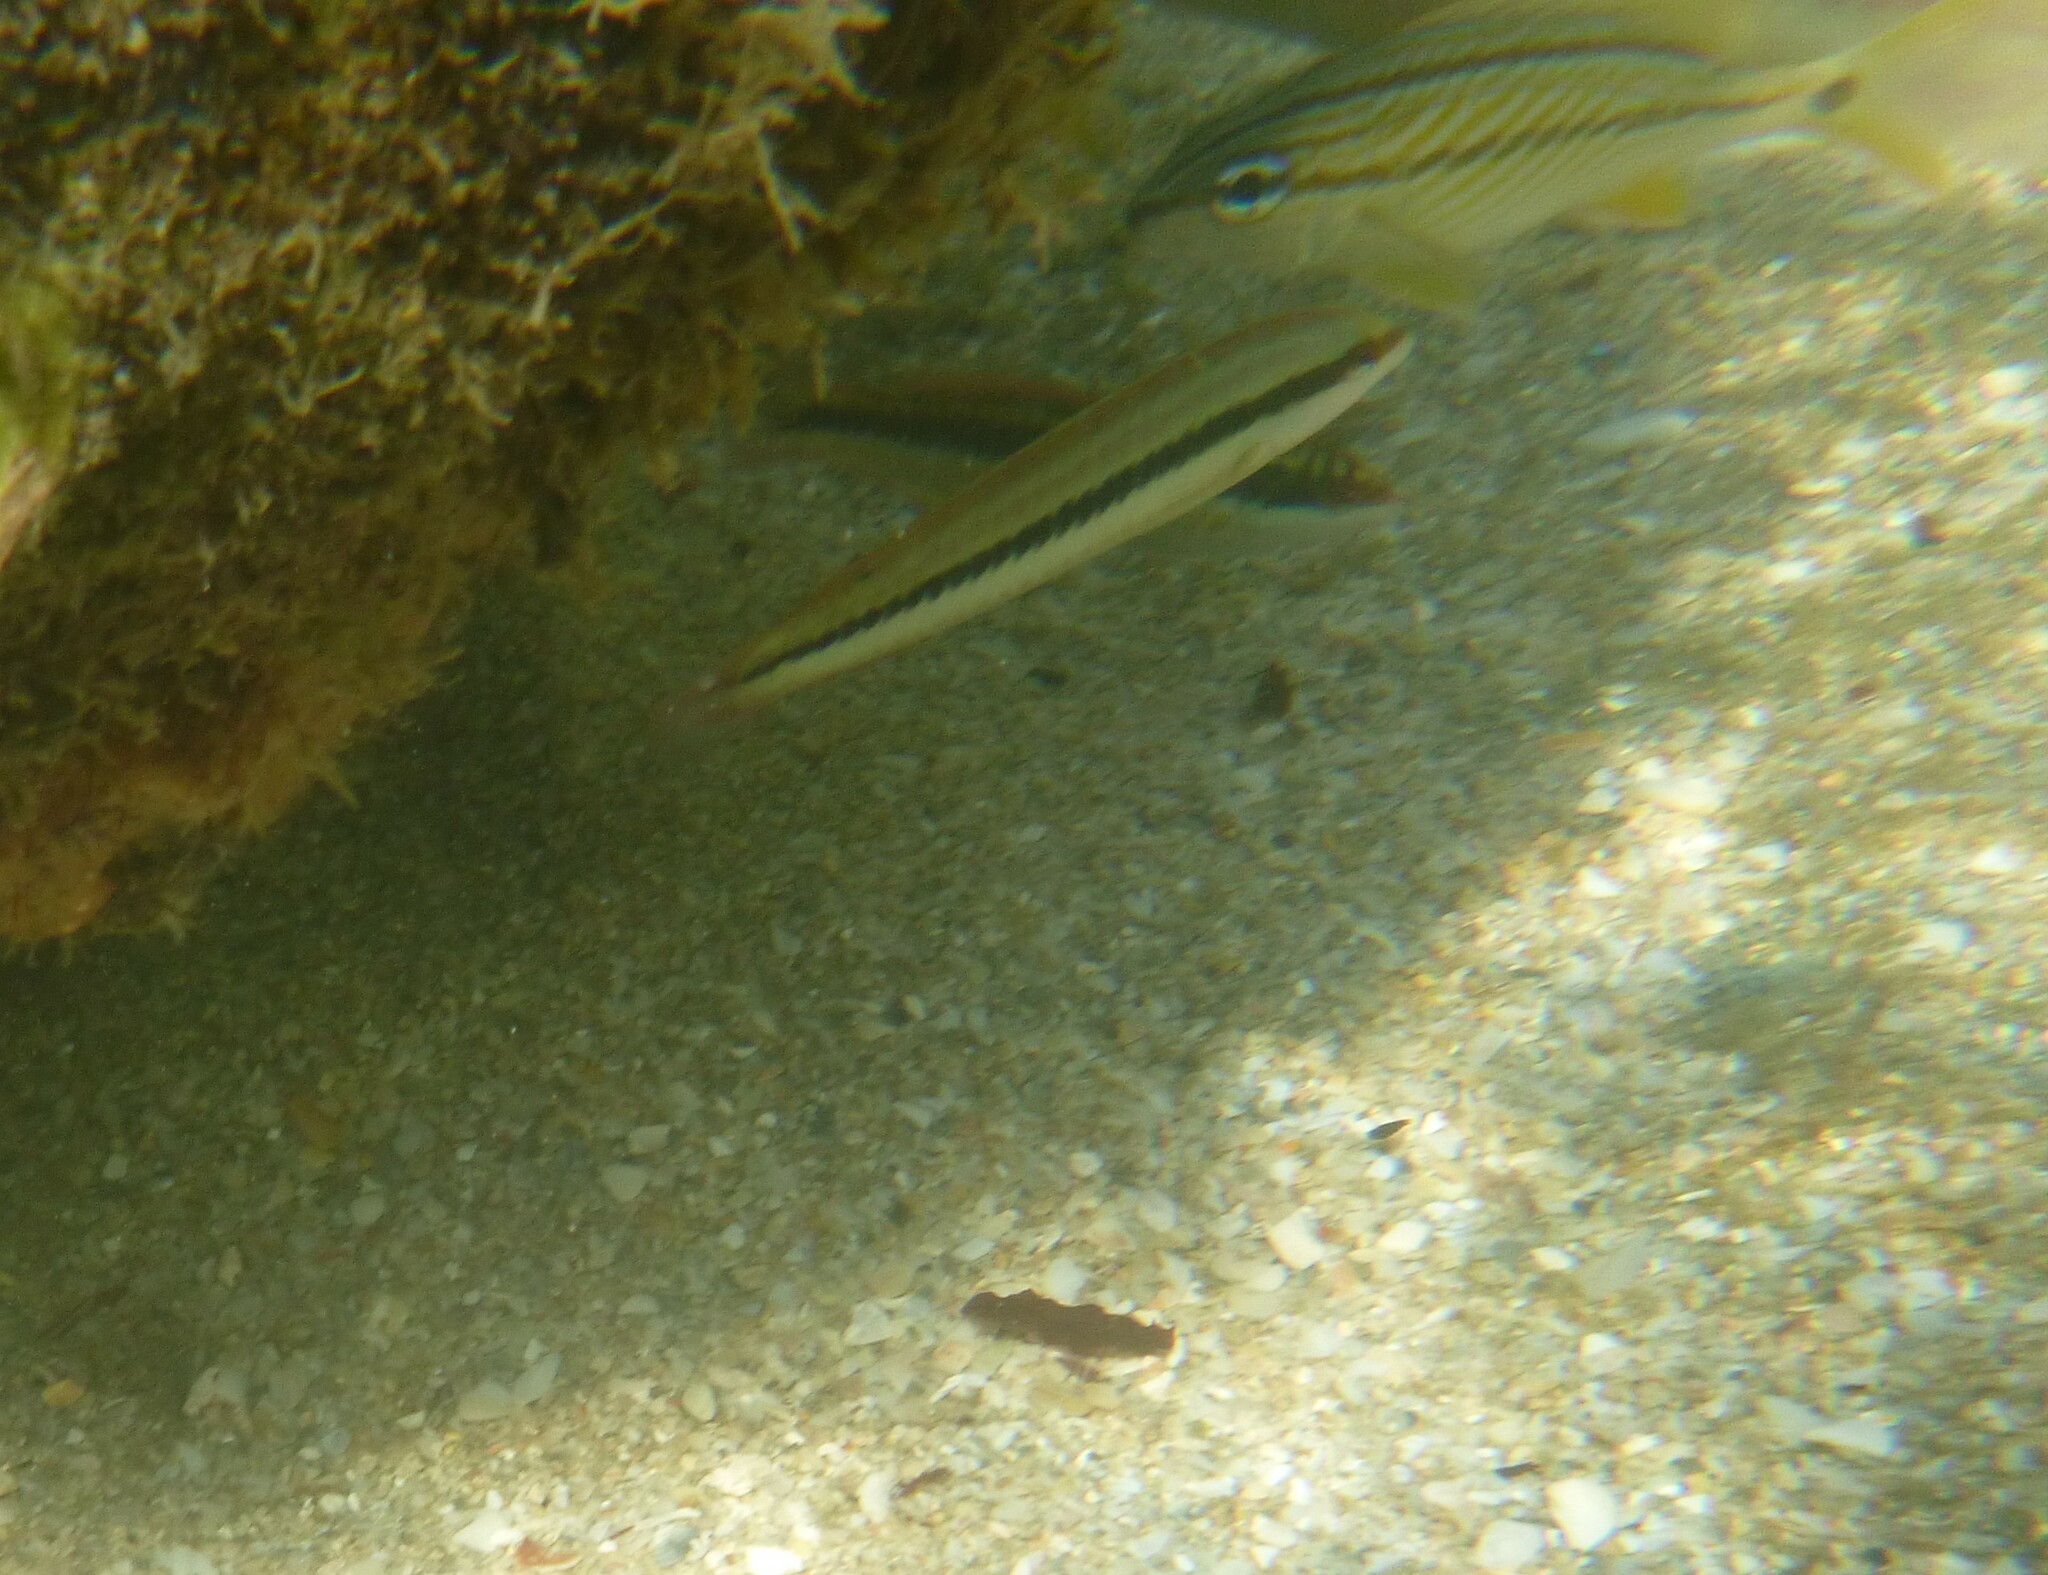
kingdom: Animalia
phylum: Chordata
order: Perciformes
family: Labridae
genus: Halichoeres
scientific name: Halichoeres bivittatus
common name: Slippery dick
